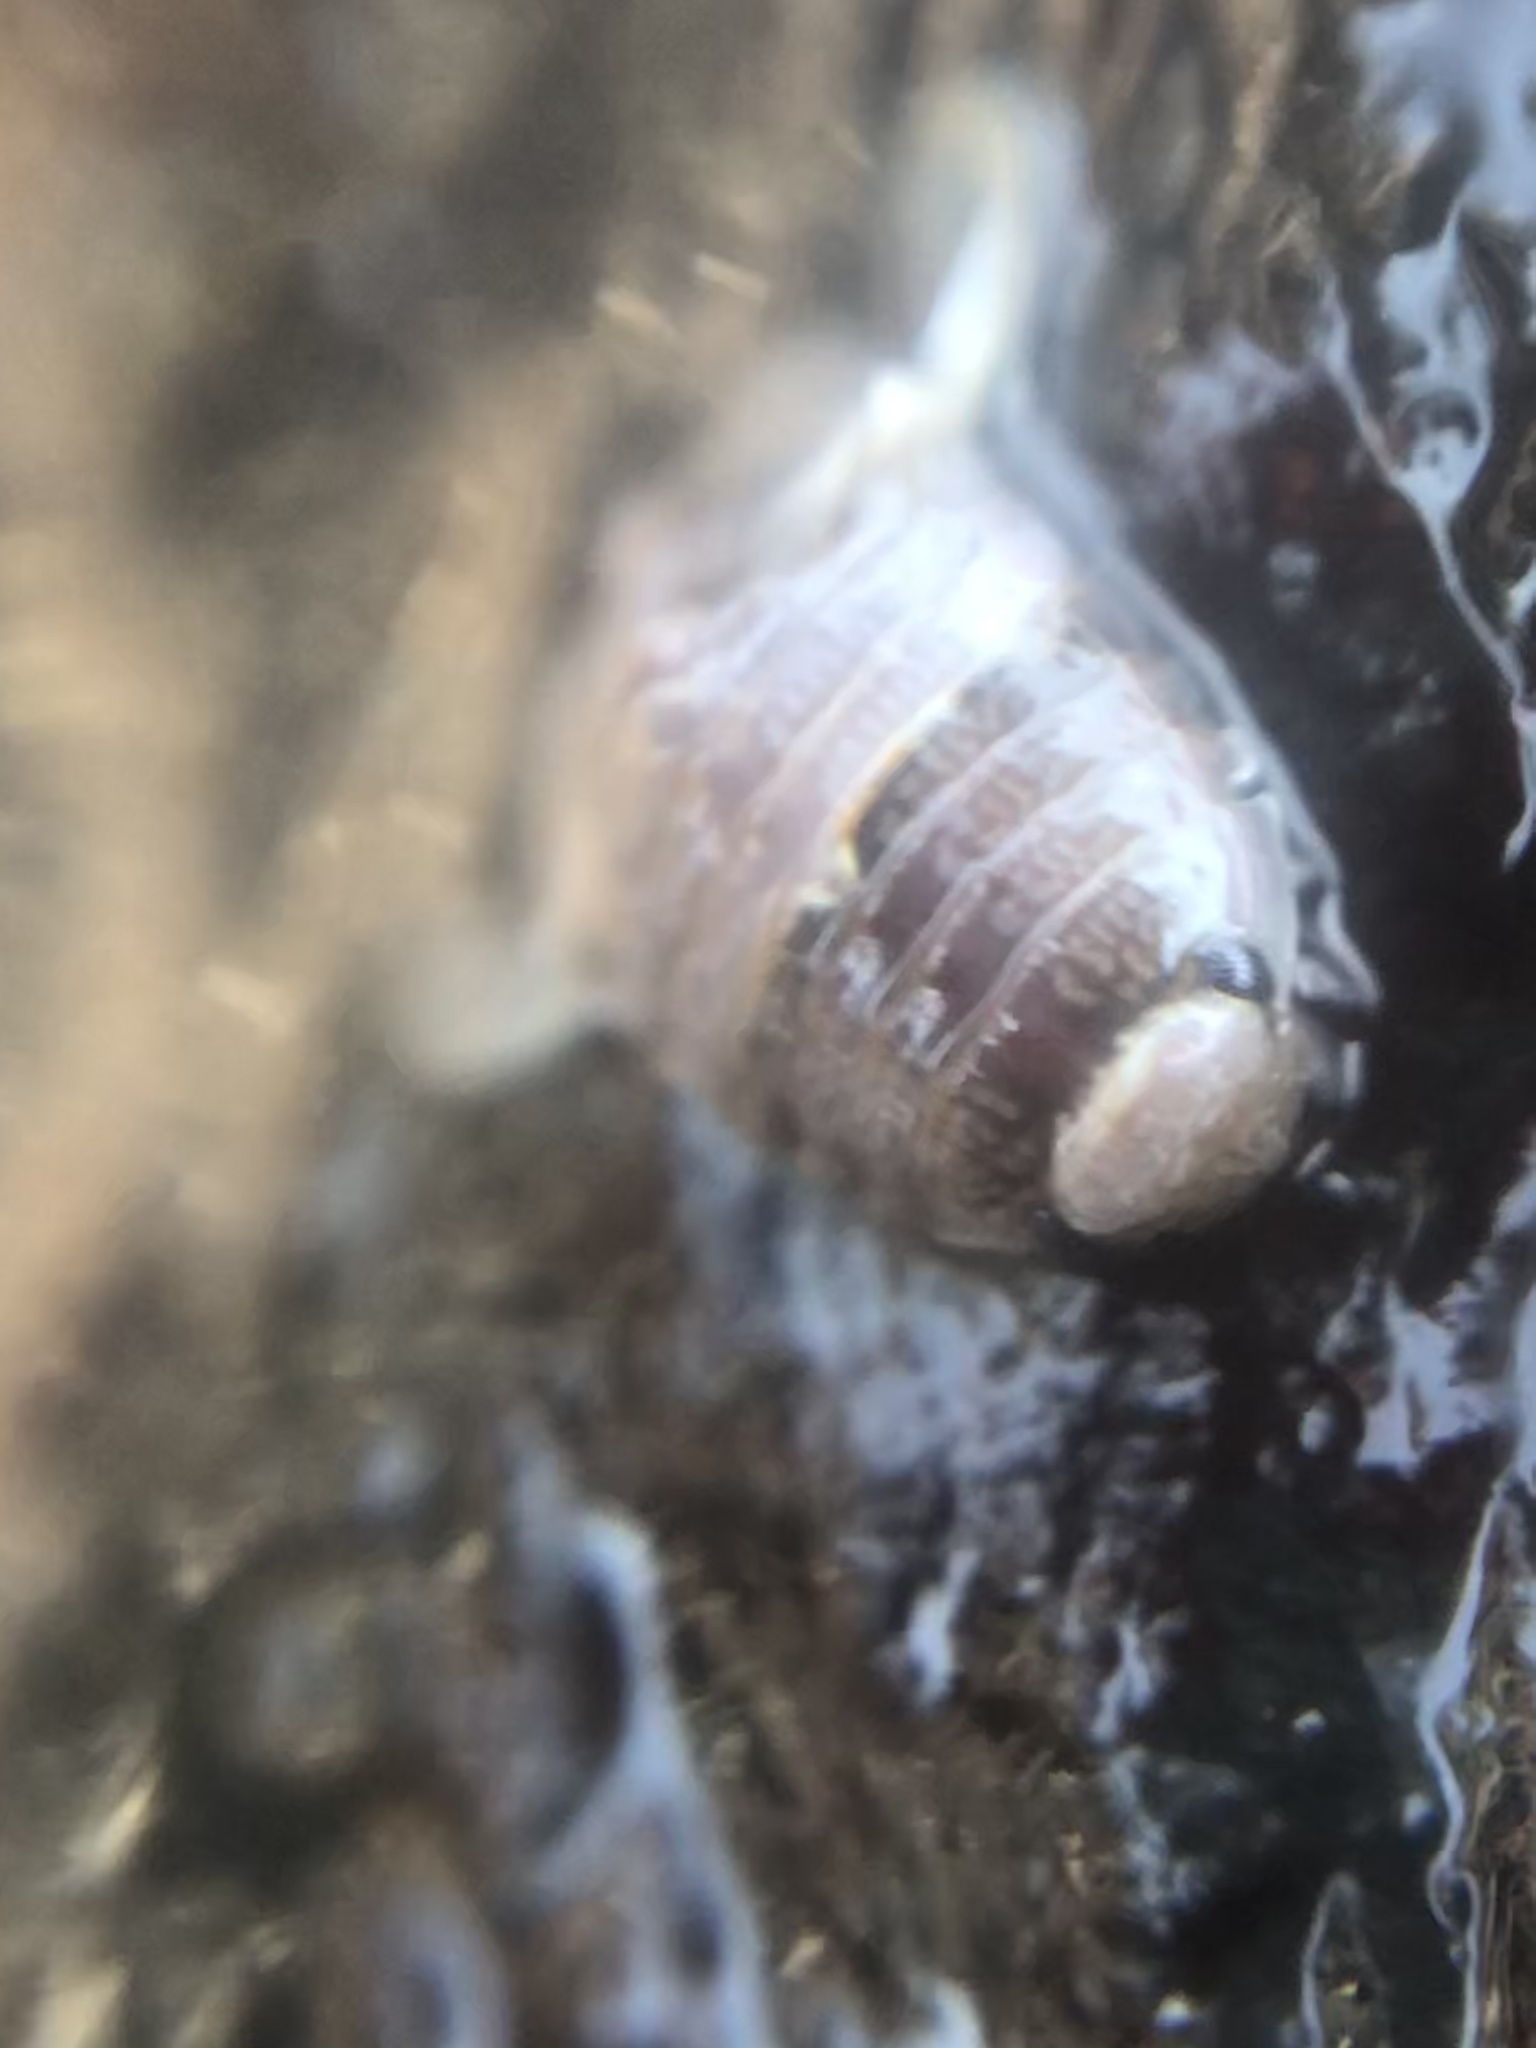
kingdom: Animalia
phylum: Arthropoda
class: Malacostraca
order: Isopoda
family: Sphaeromatidae
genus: Exosphaeroma
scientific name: Exosphaeroma amplicauda
